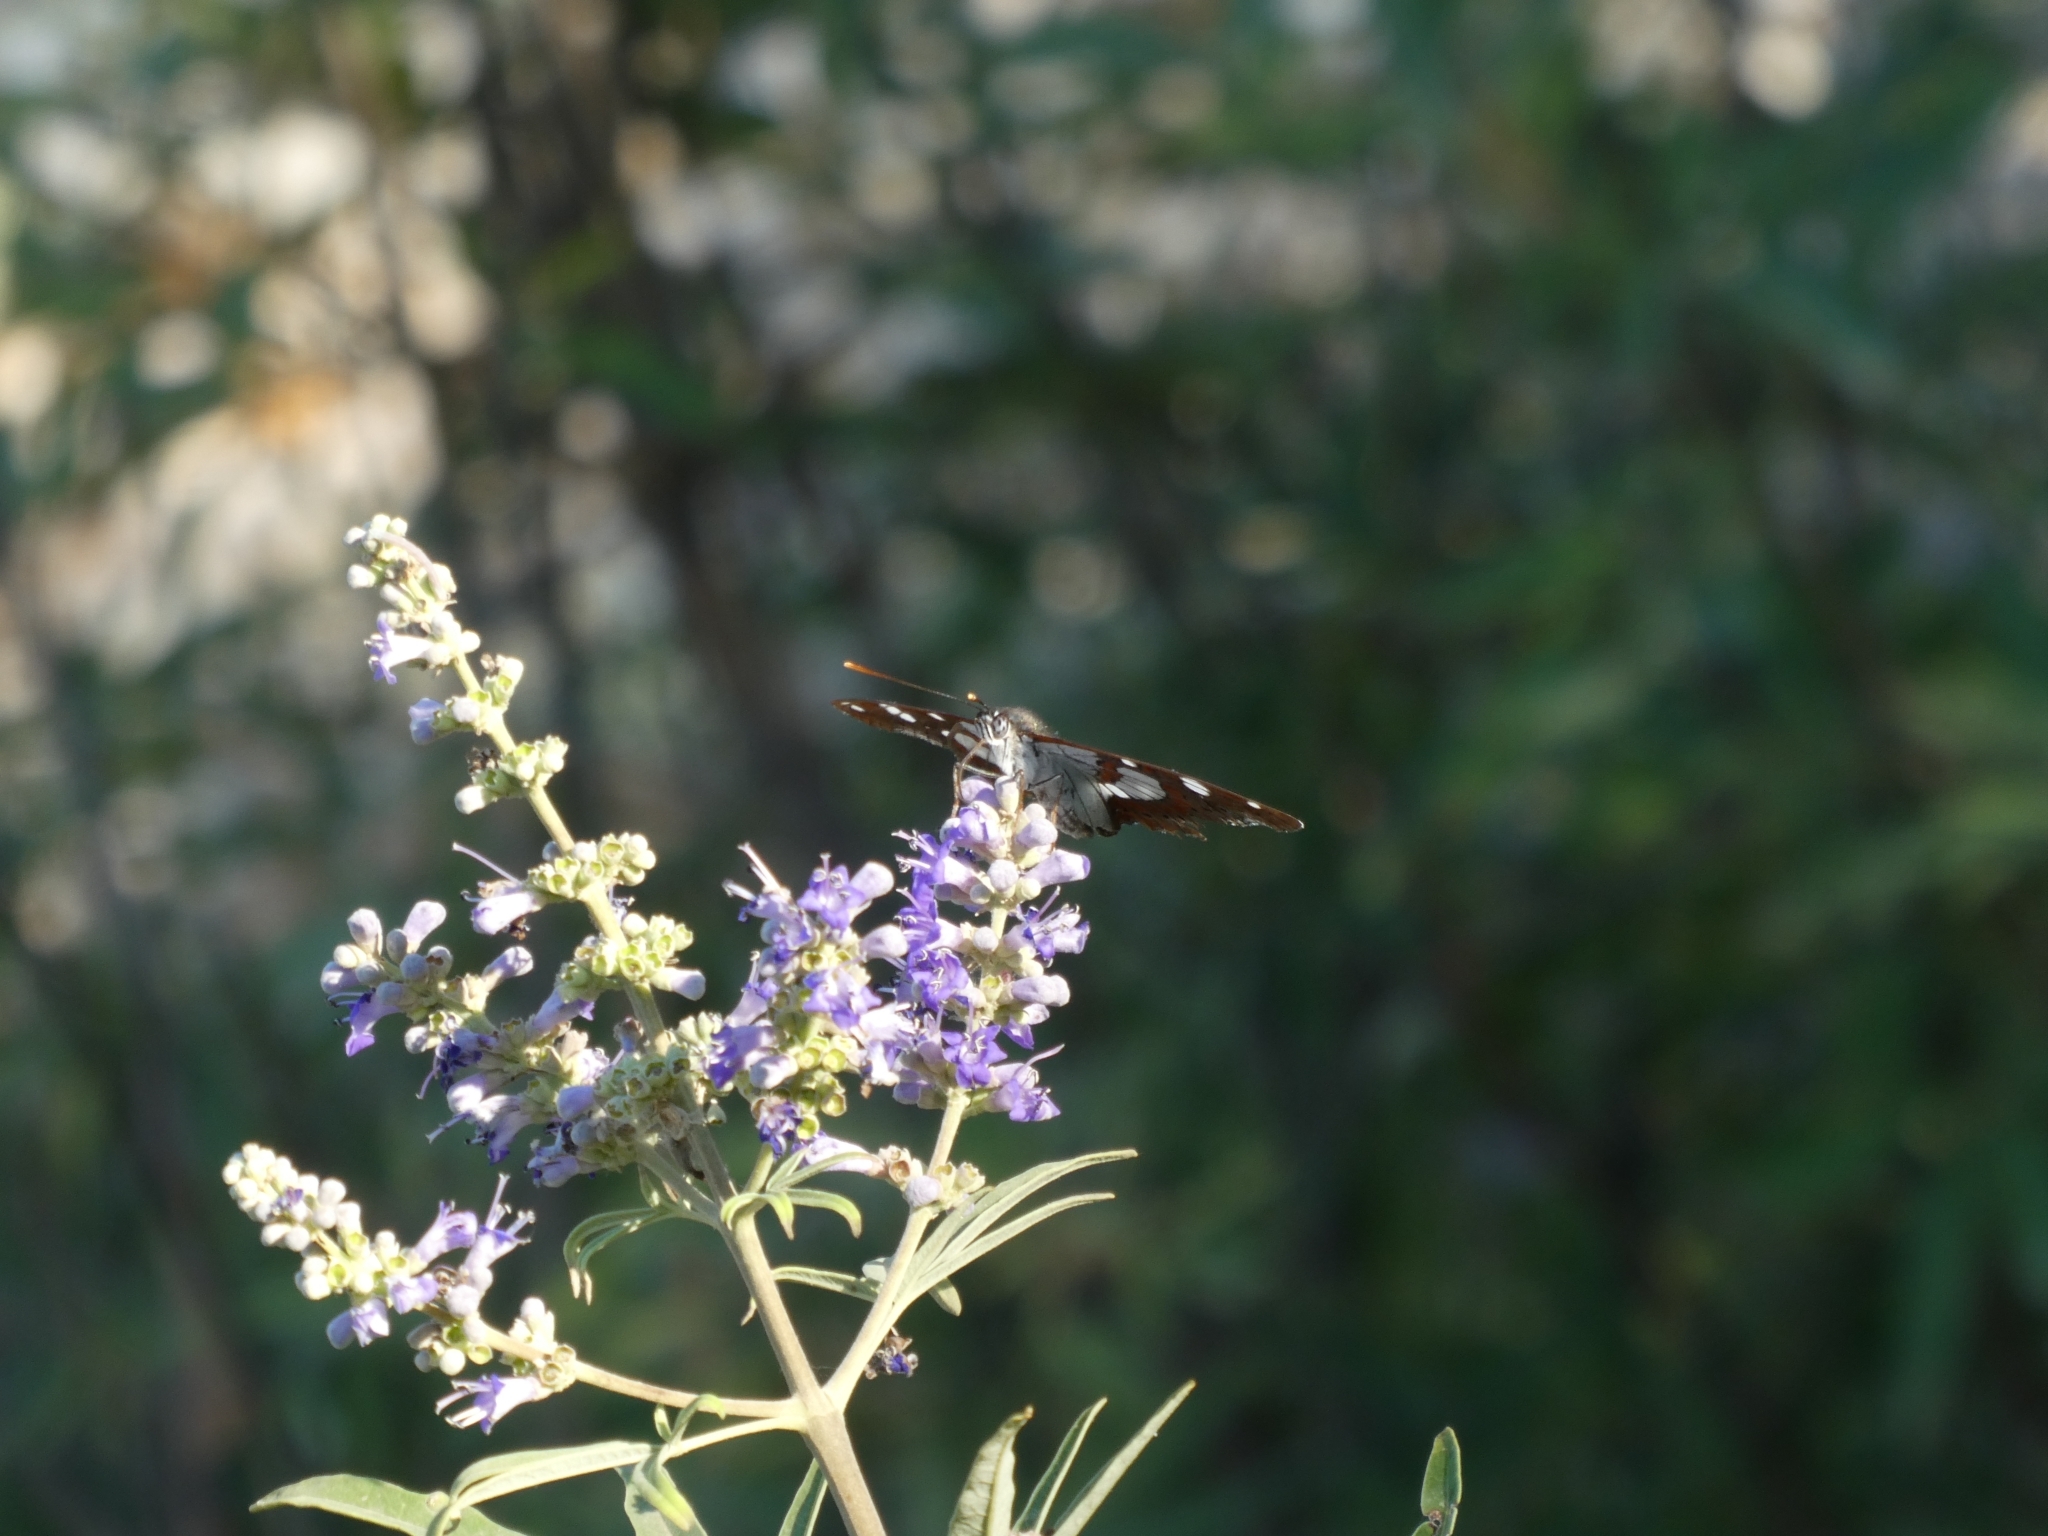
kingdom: Animalia
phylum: Arthropoda
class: Insecta
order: Lepidoptera
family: Nymphalidae
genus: Limenitis
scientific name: Limenitis reducta
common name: Southern white admiral
